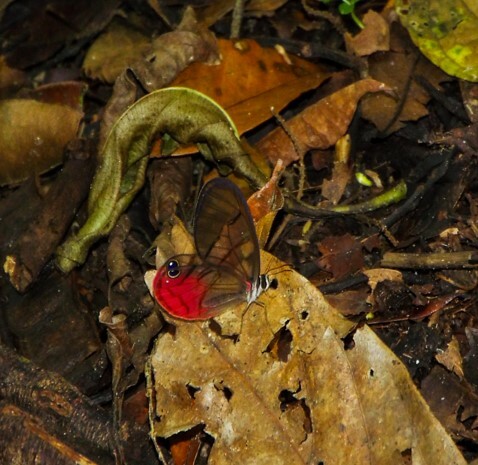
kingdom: Animalia
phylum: Arthropoda
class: Insecta
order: Lepidoptera
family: Nymphalidae
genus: Cithaerias
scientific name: Cithaerias pireta
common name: Rusted clearwing-satyr
